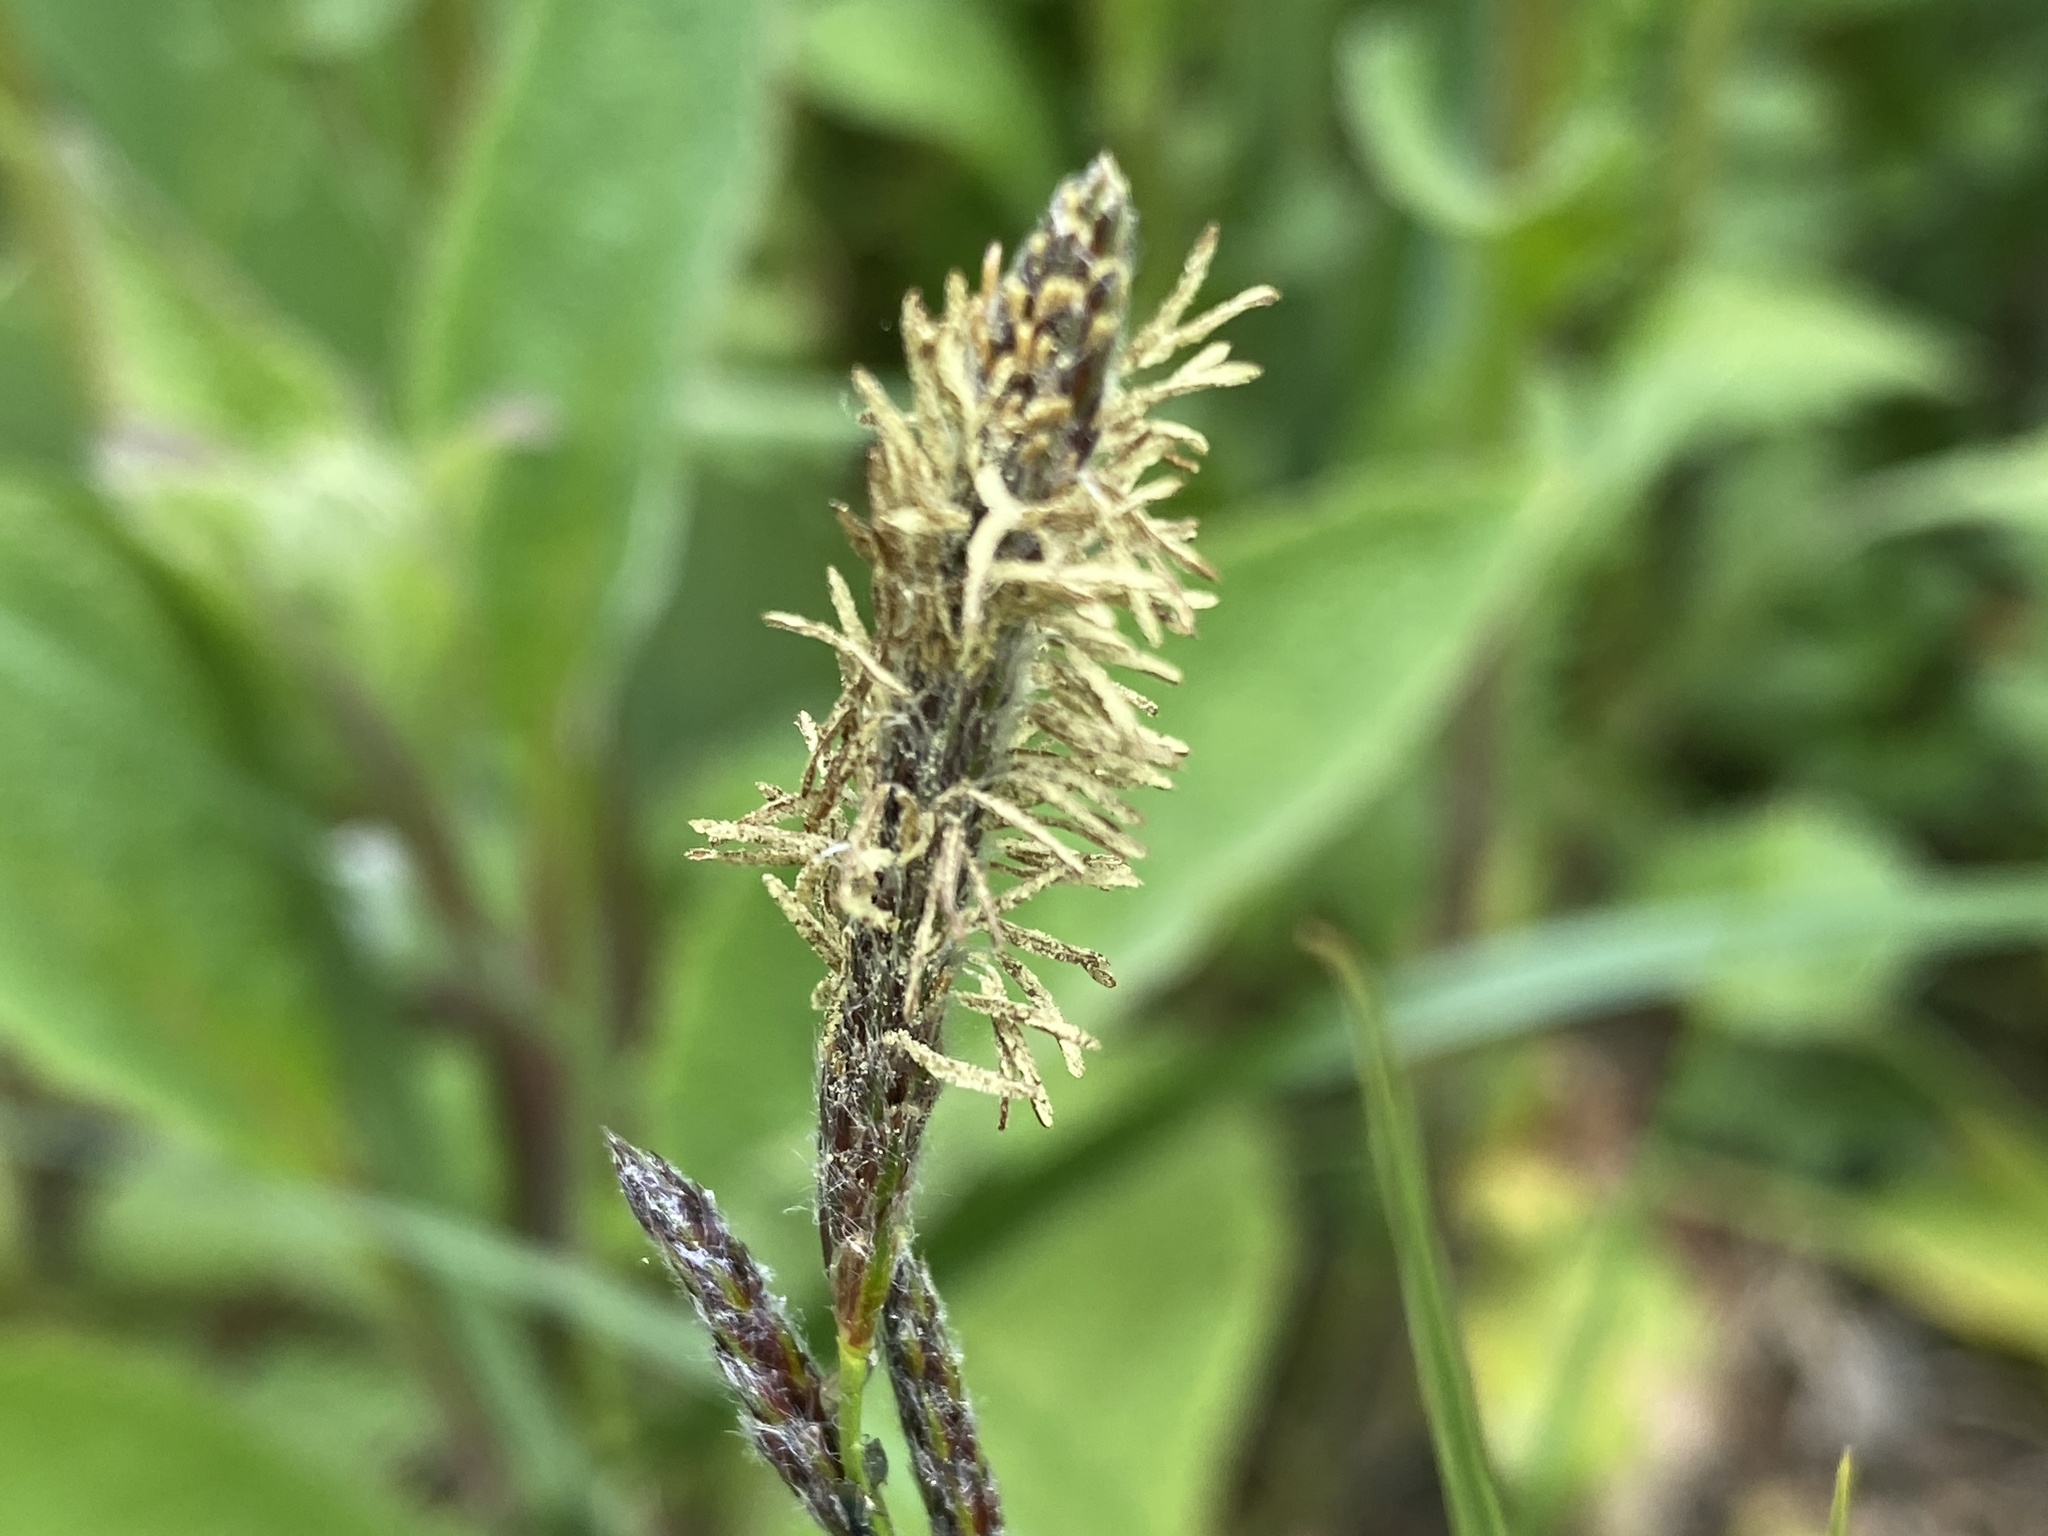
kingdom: Plantae
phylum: Tracheophyta
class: Liliopsida
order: Poales
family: Cyperaceae
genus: Carex
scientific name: Carex hirta
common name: Hairy sedge
